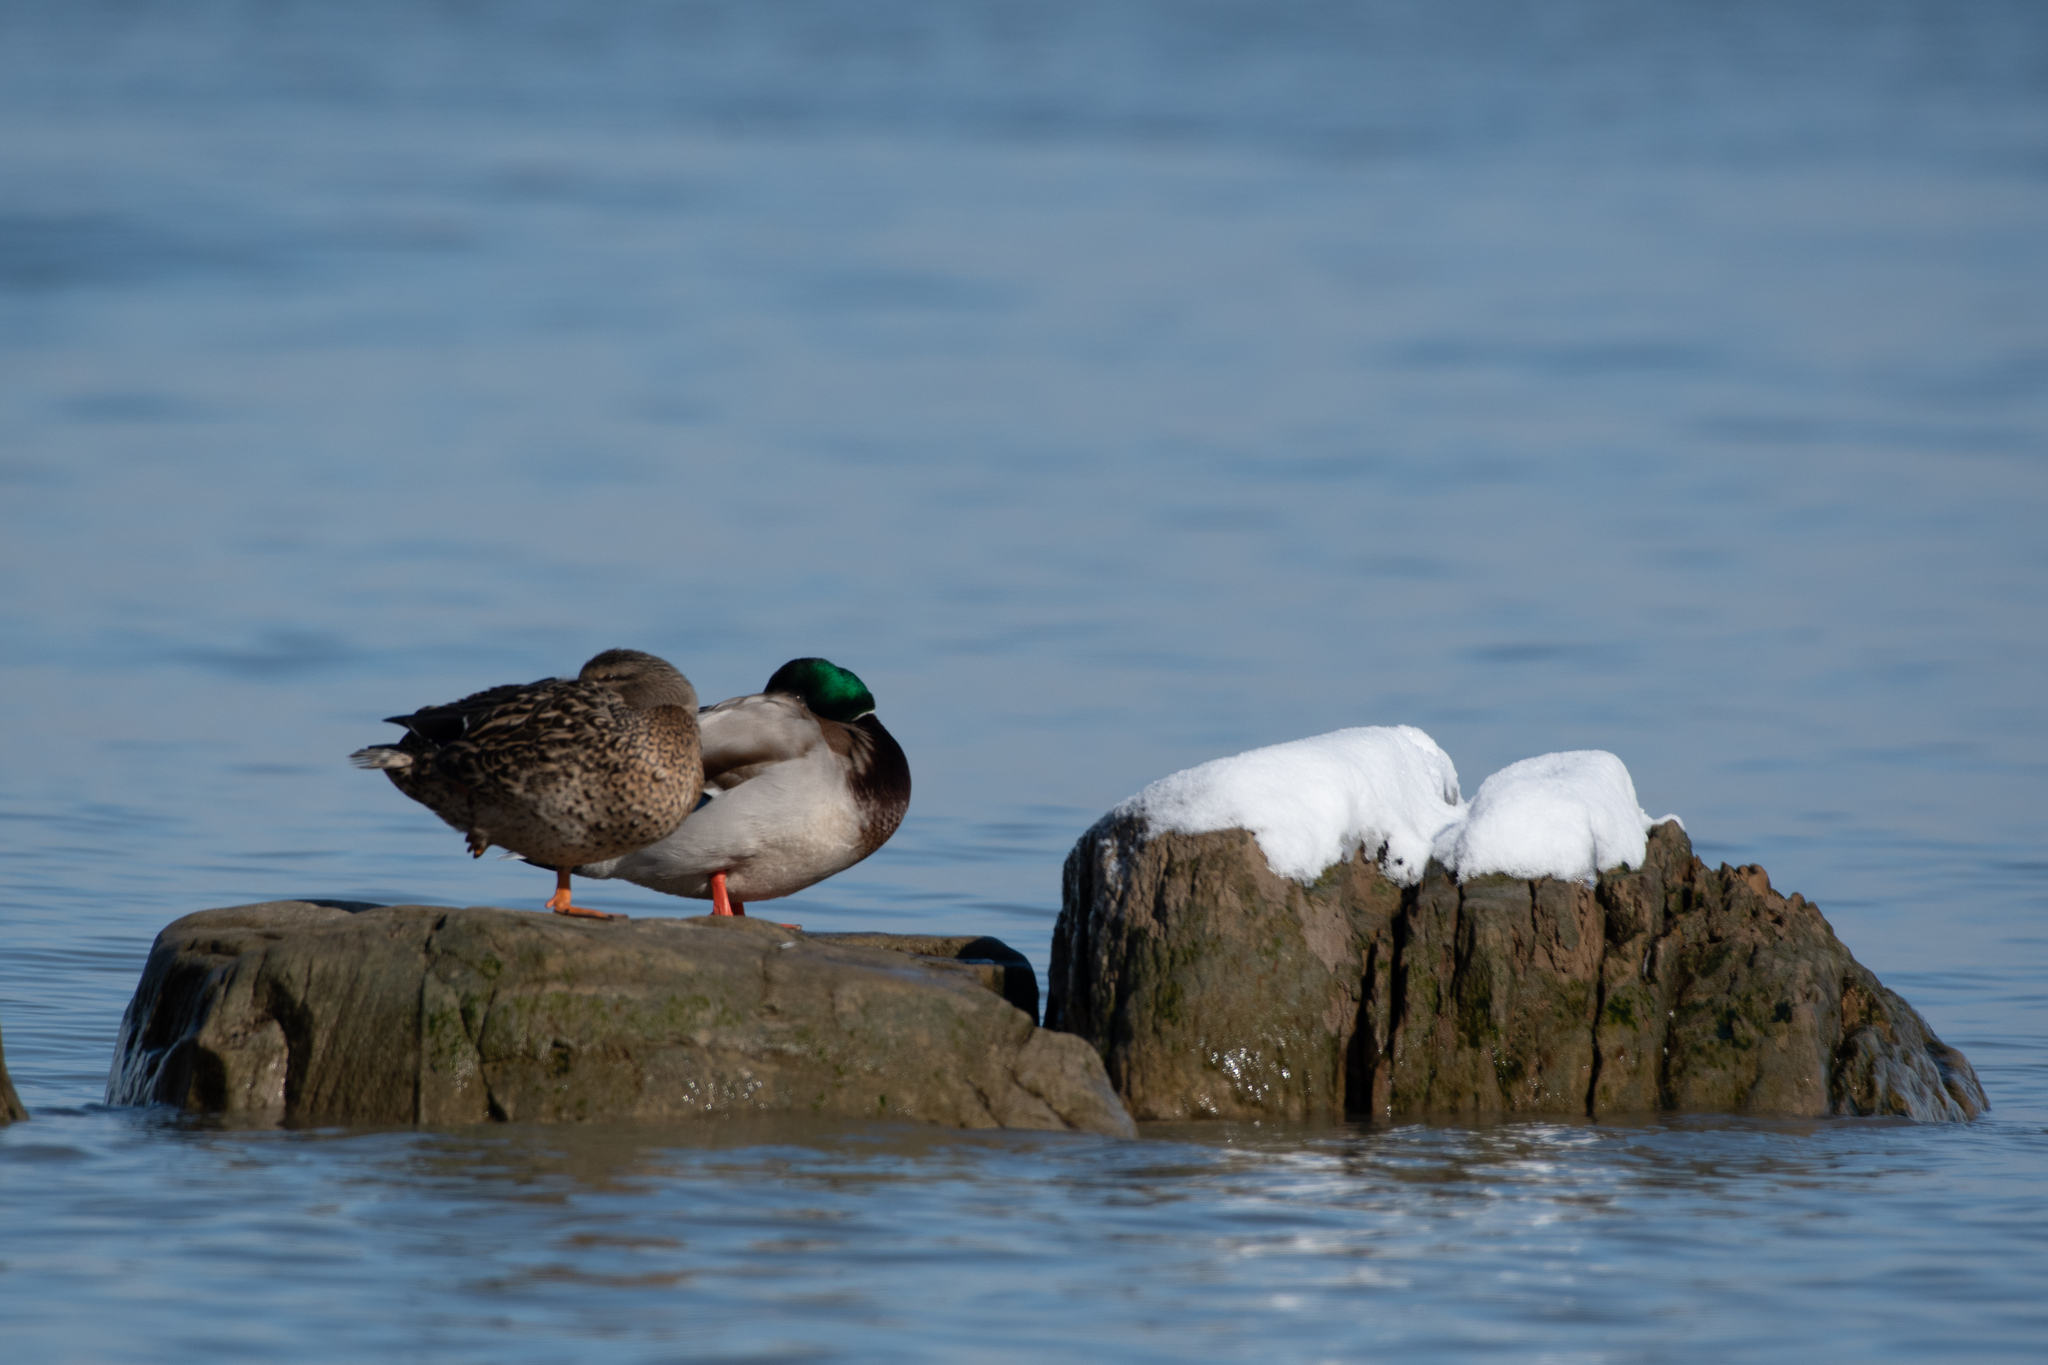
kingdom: Animalia
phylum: Chordata
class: Aves
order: Anseriformes
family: Anatidae
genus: Anas
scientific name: Anas platyrhynchos
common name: Mallard
